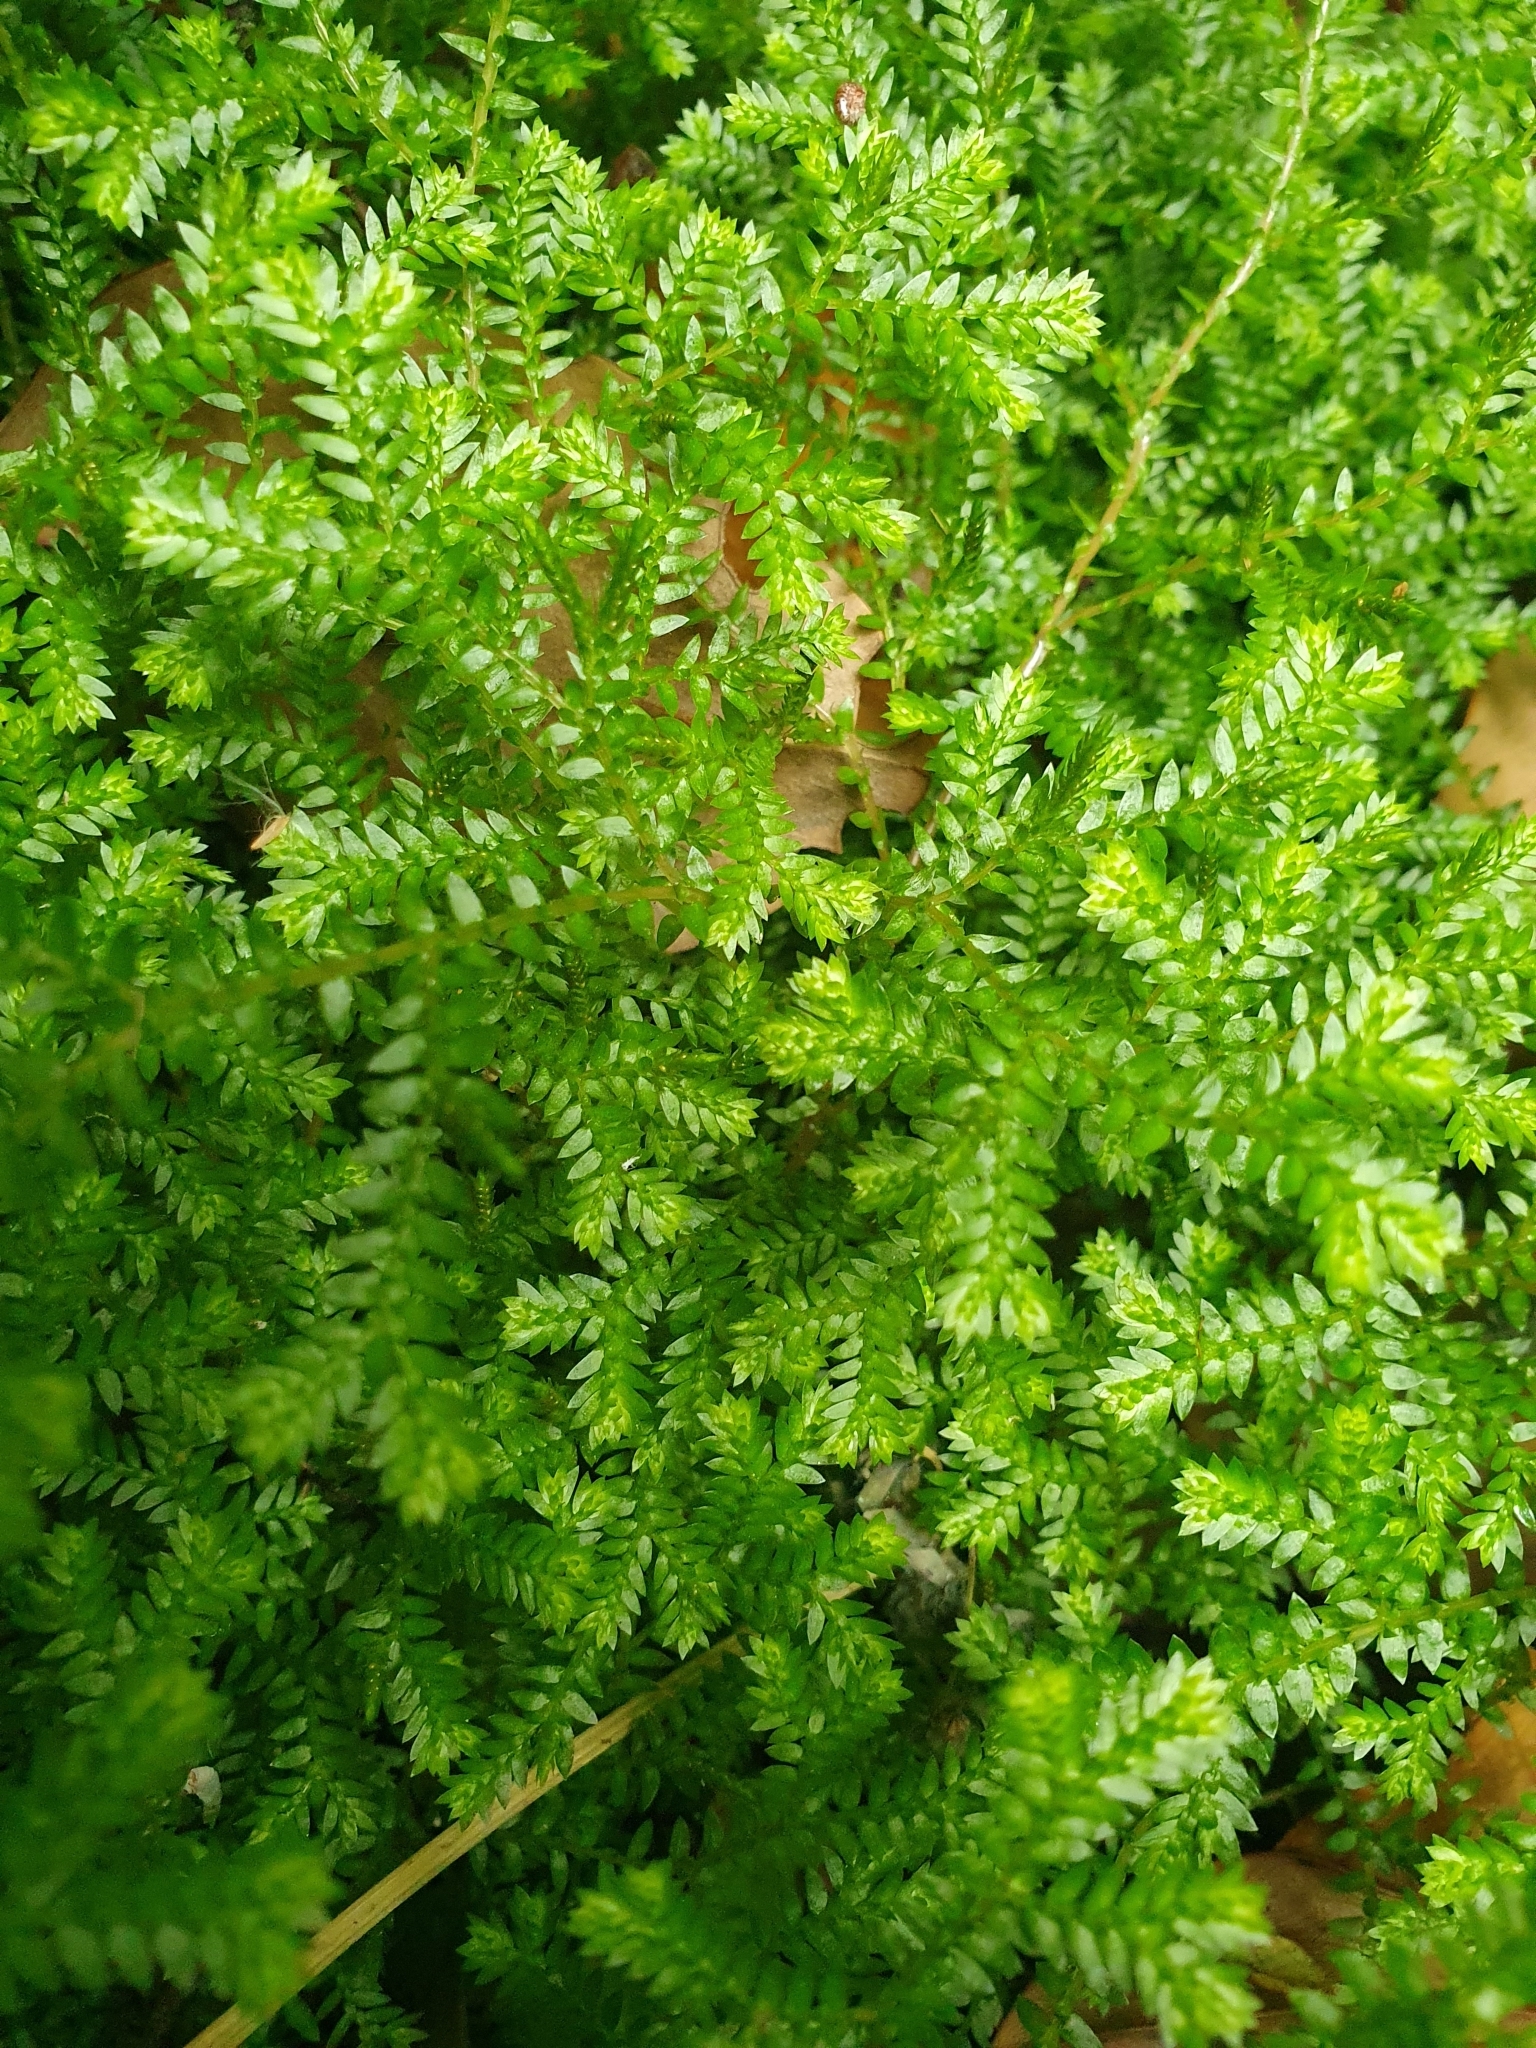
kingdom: Plantae
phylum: Tracheophyta
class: Lycopodiopsida
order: Selaginellales
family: Selaginellaceae
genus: Selaginella
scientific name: Selaginella kraussiana
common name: Krauss' spikemoss
